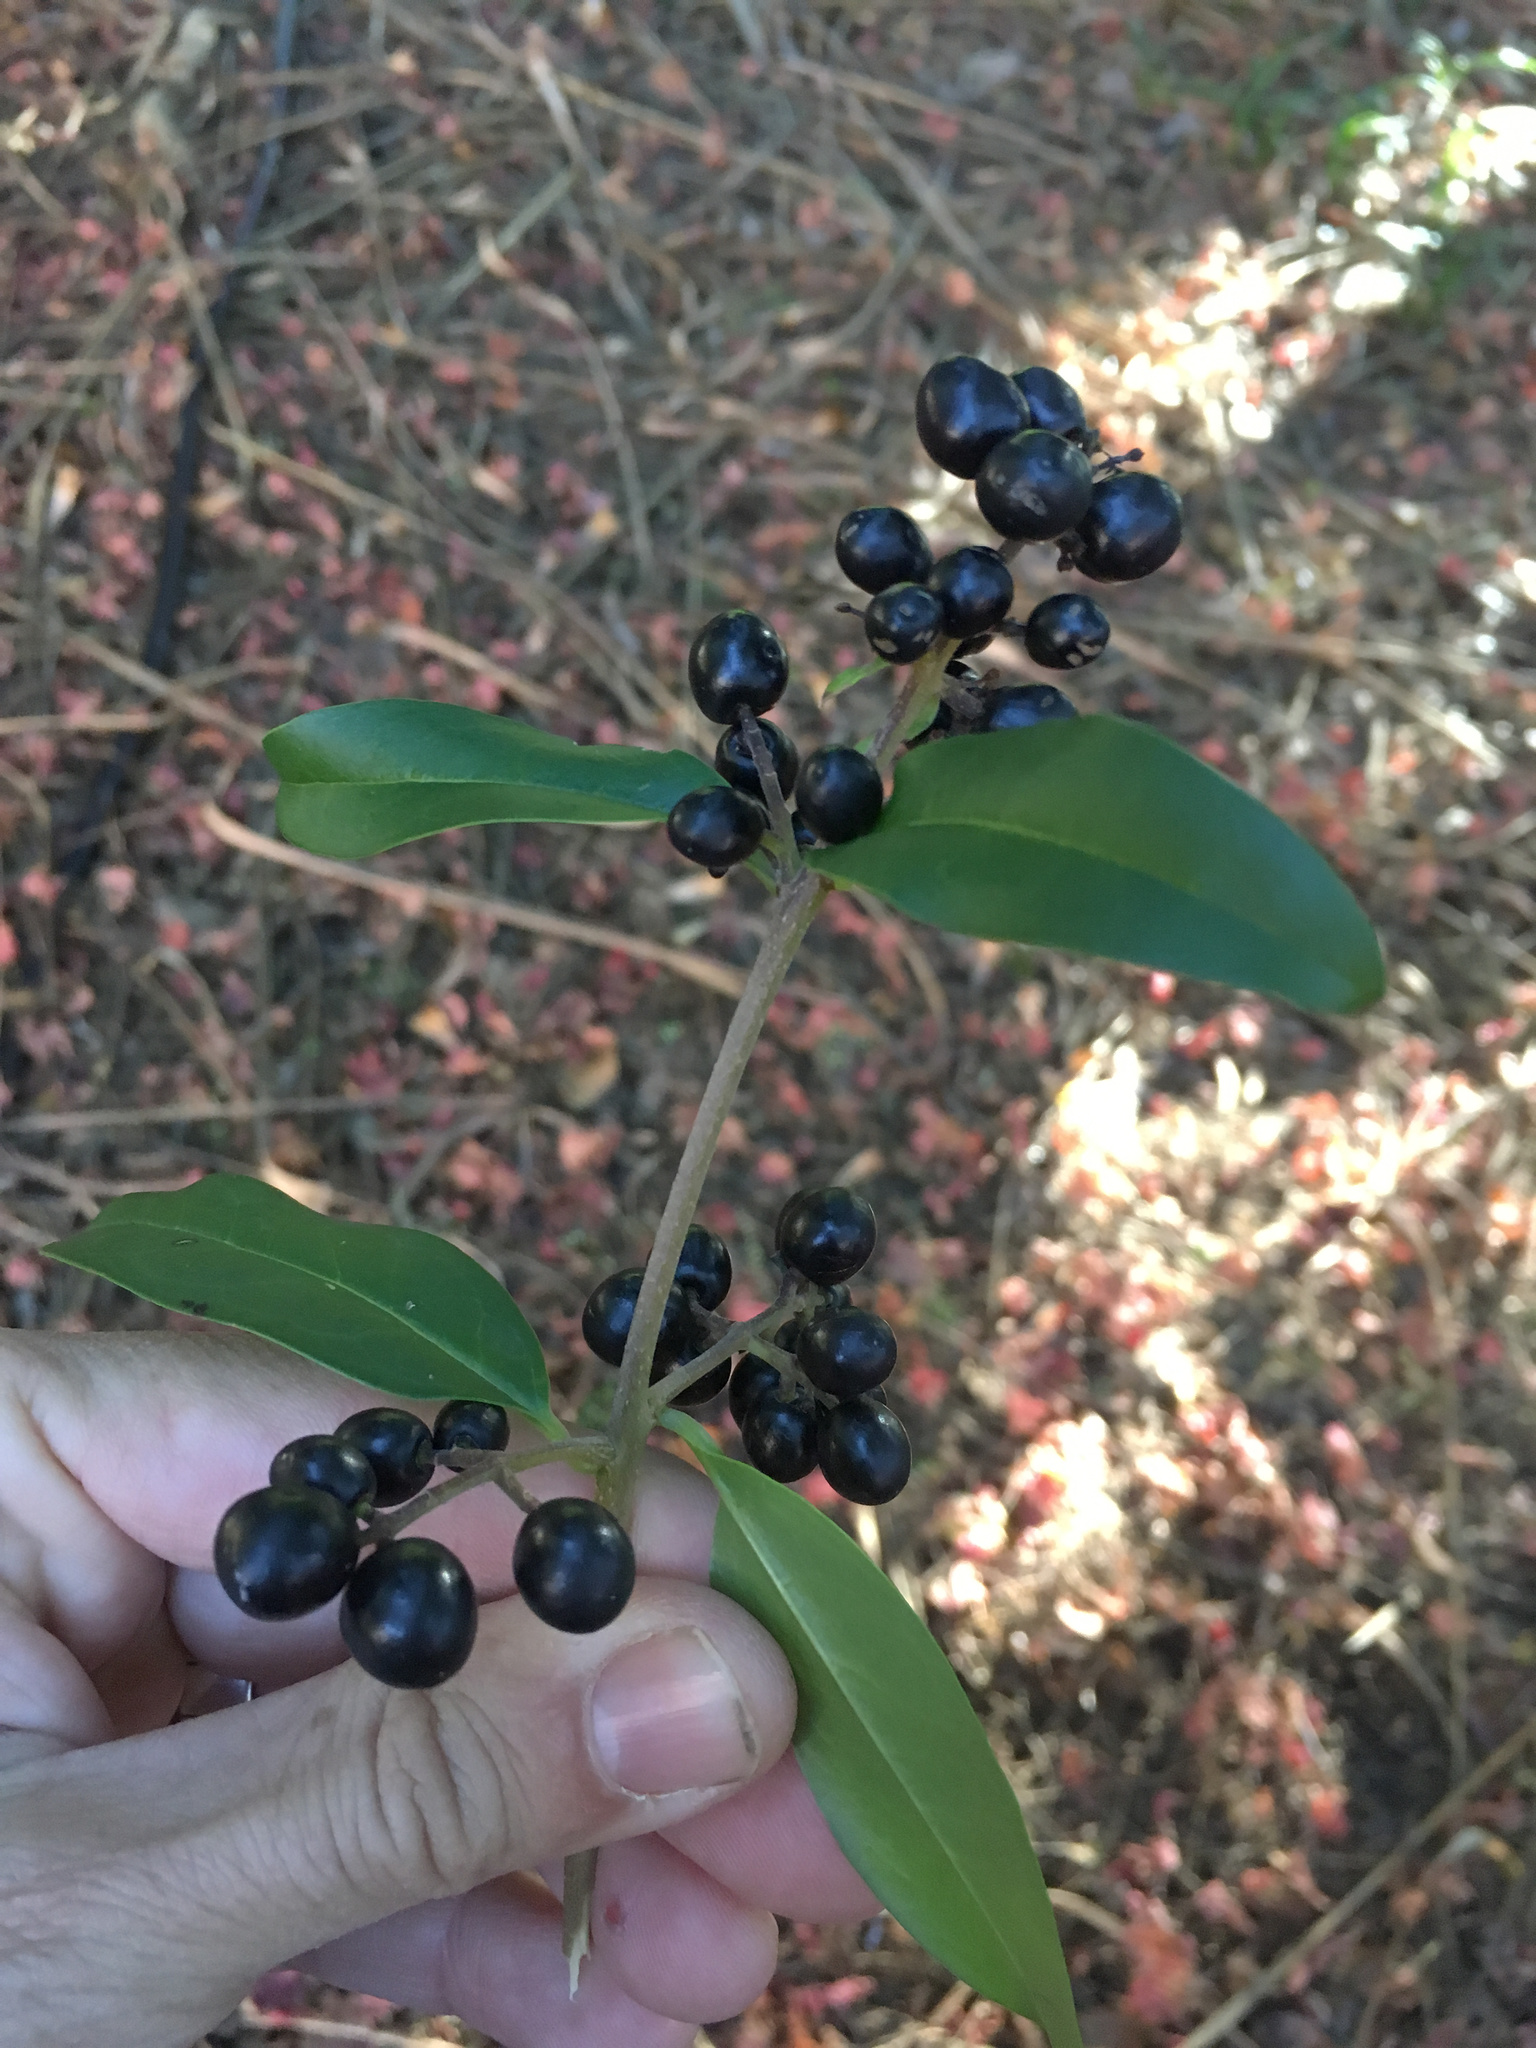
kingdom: Plantae
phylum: Tracheophyta
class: Magnoliopsida
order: Lamiales
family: Oleaceae
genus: Ligustrum
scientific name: Ligustrum vulgare
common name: Wild privet
